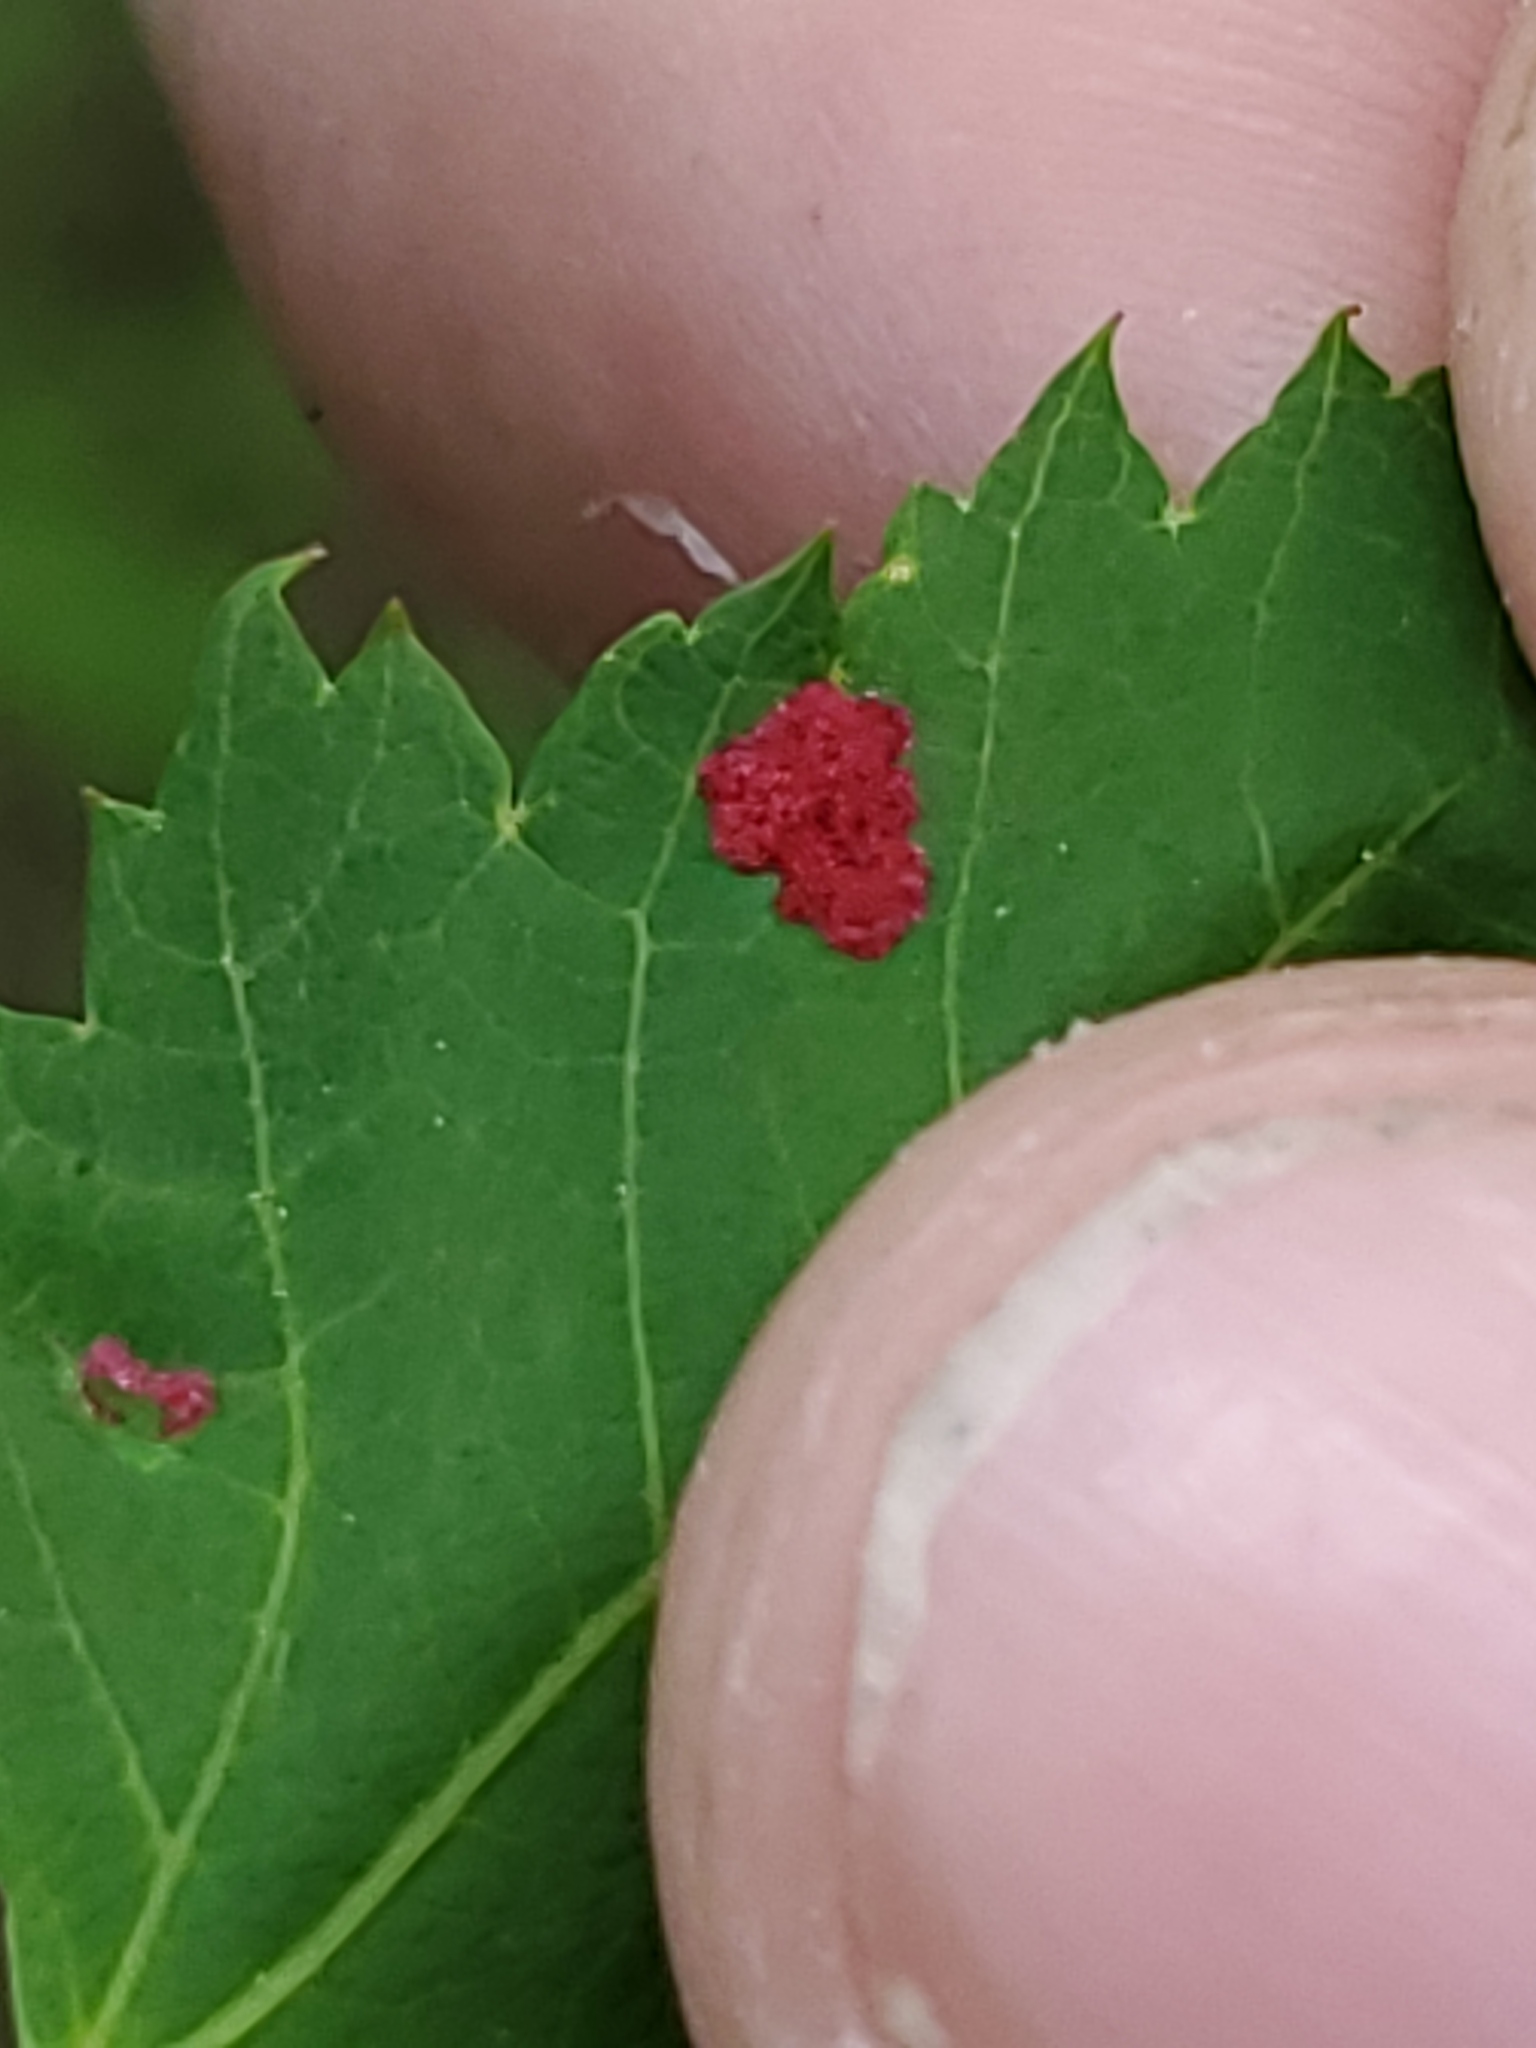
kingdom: Animalia
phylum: Arthropoda
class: Arachnida
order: Trombidiformes
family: Eriophyidae
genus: Aceria
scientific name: Aceria
